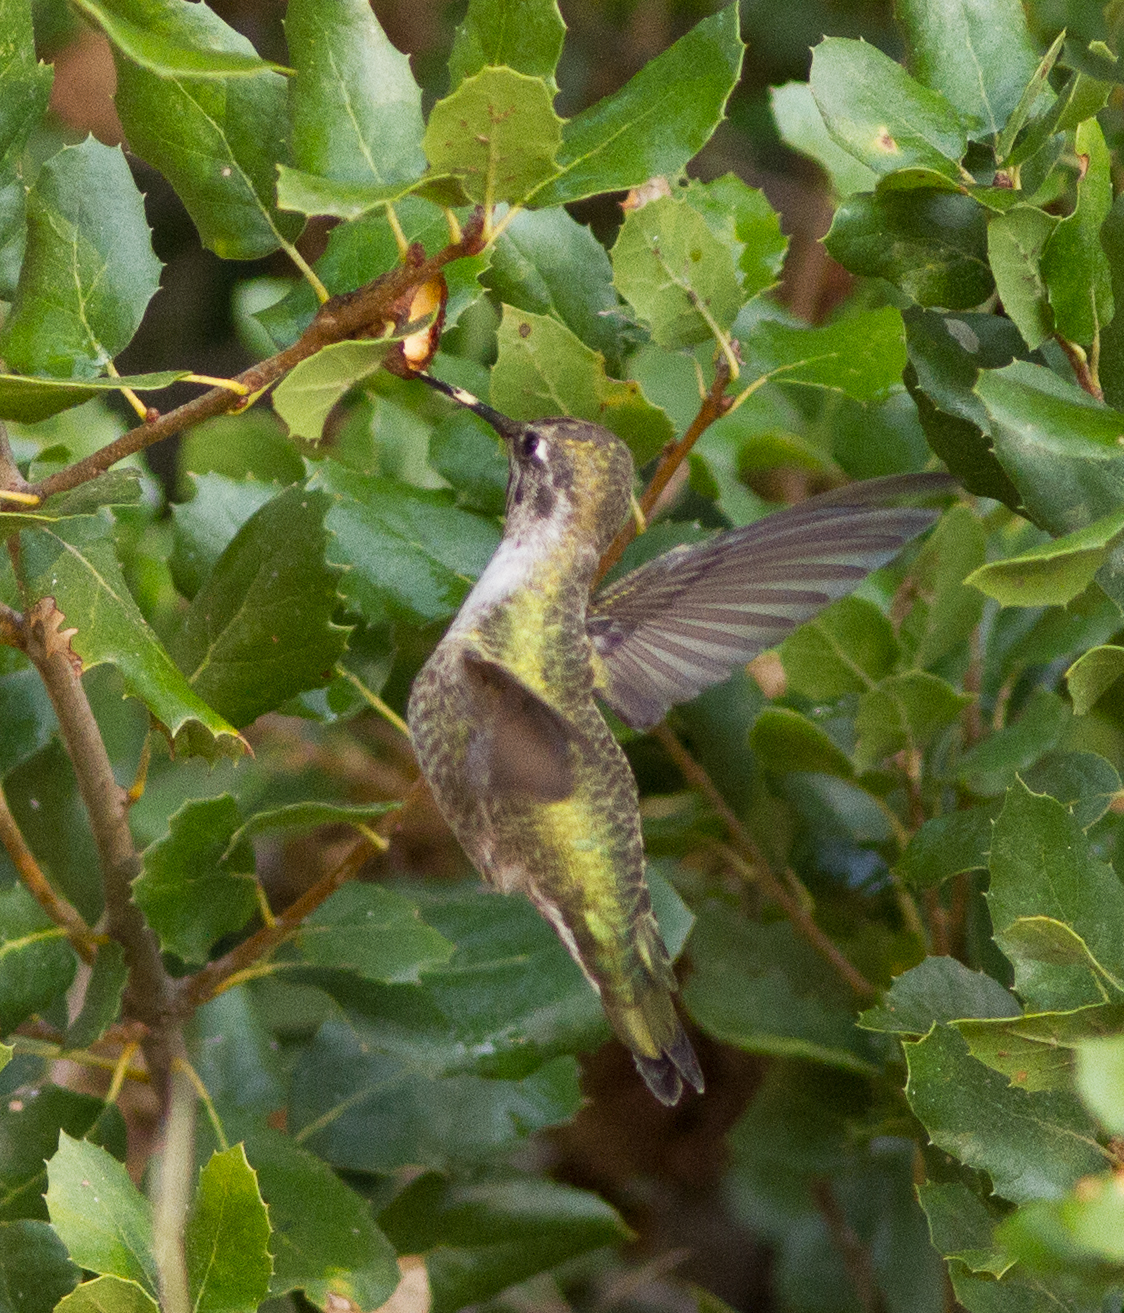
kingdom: Animalia
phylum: Chordata
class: Aves
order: Apodiformes
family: Trochilidae
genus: Calypte
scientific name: Calypte anna
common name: Anna's hummingbird
